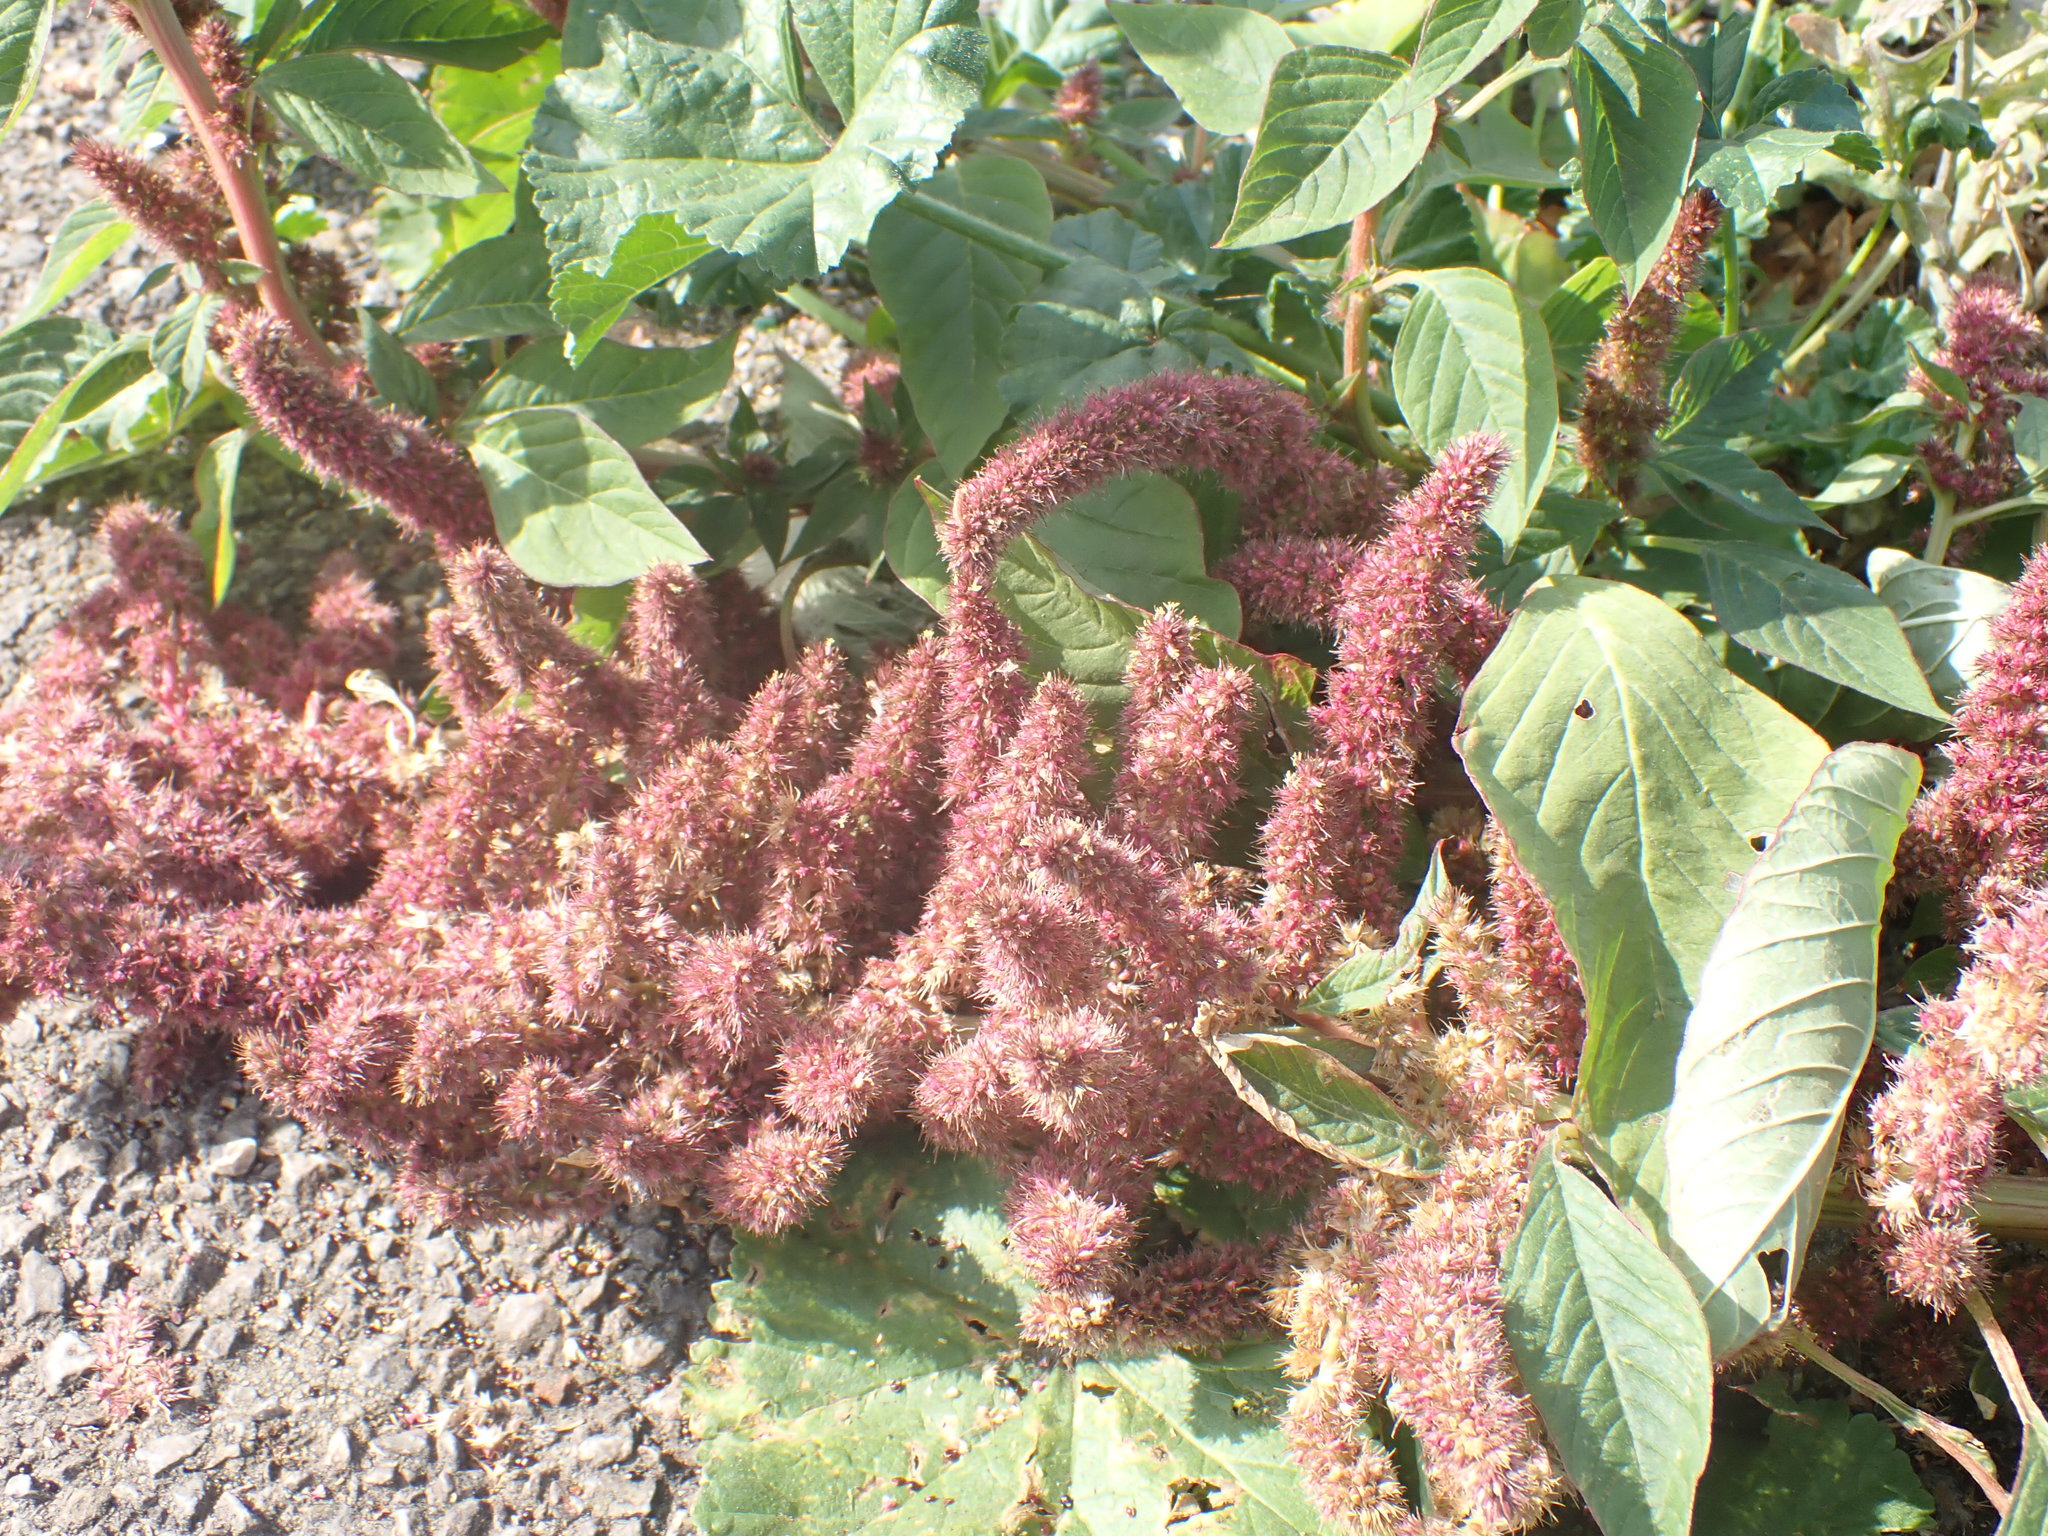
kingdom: Plantae
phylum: Tracheophyta
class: Magnoliopsida
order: Caryophyllales
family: Amaranthaceae
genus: Amaranthus
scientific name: Amaranthus hypochondriacus
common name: Prince's-feather
